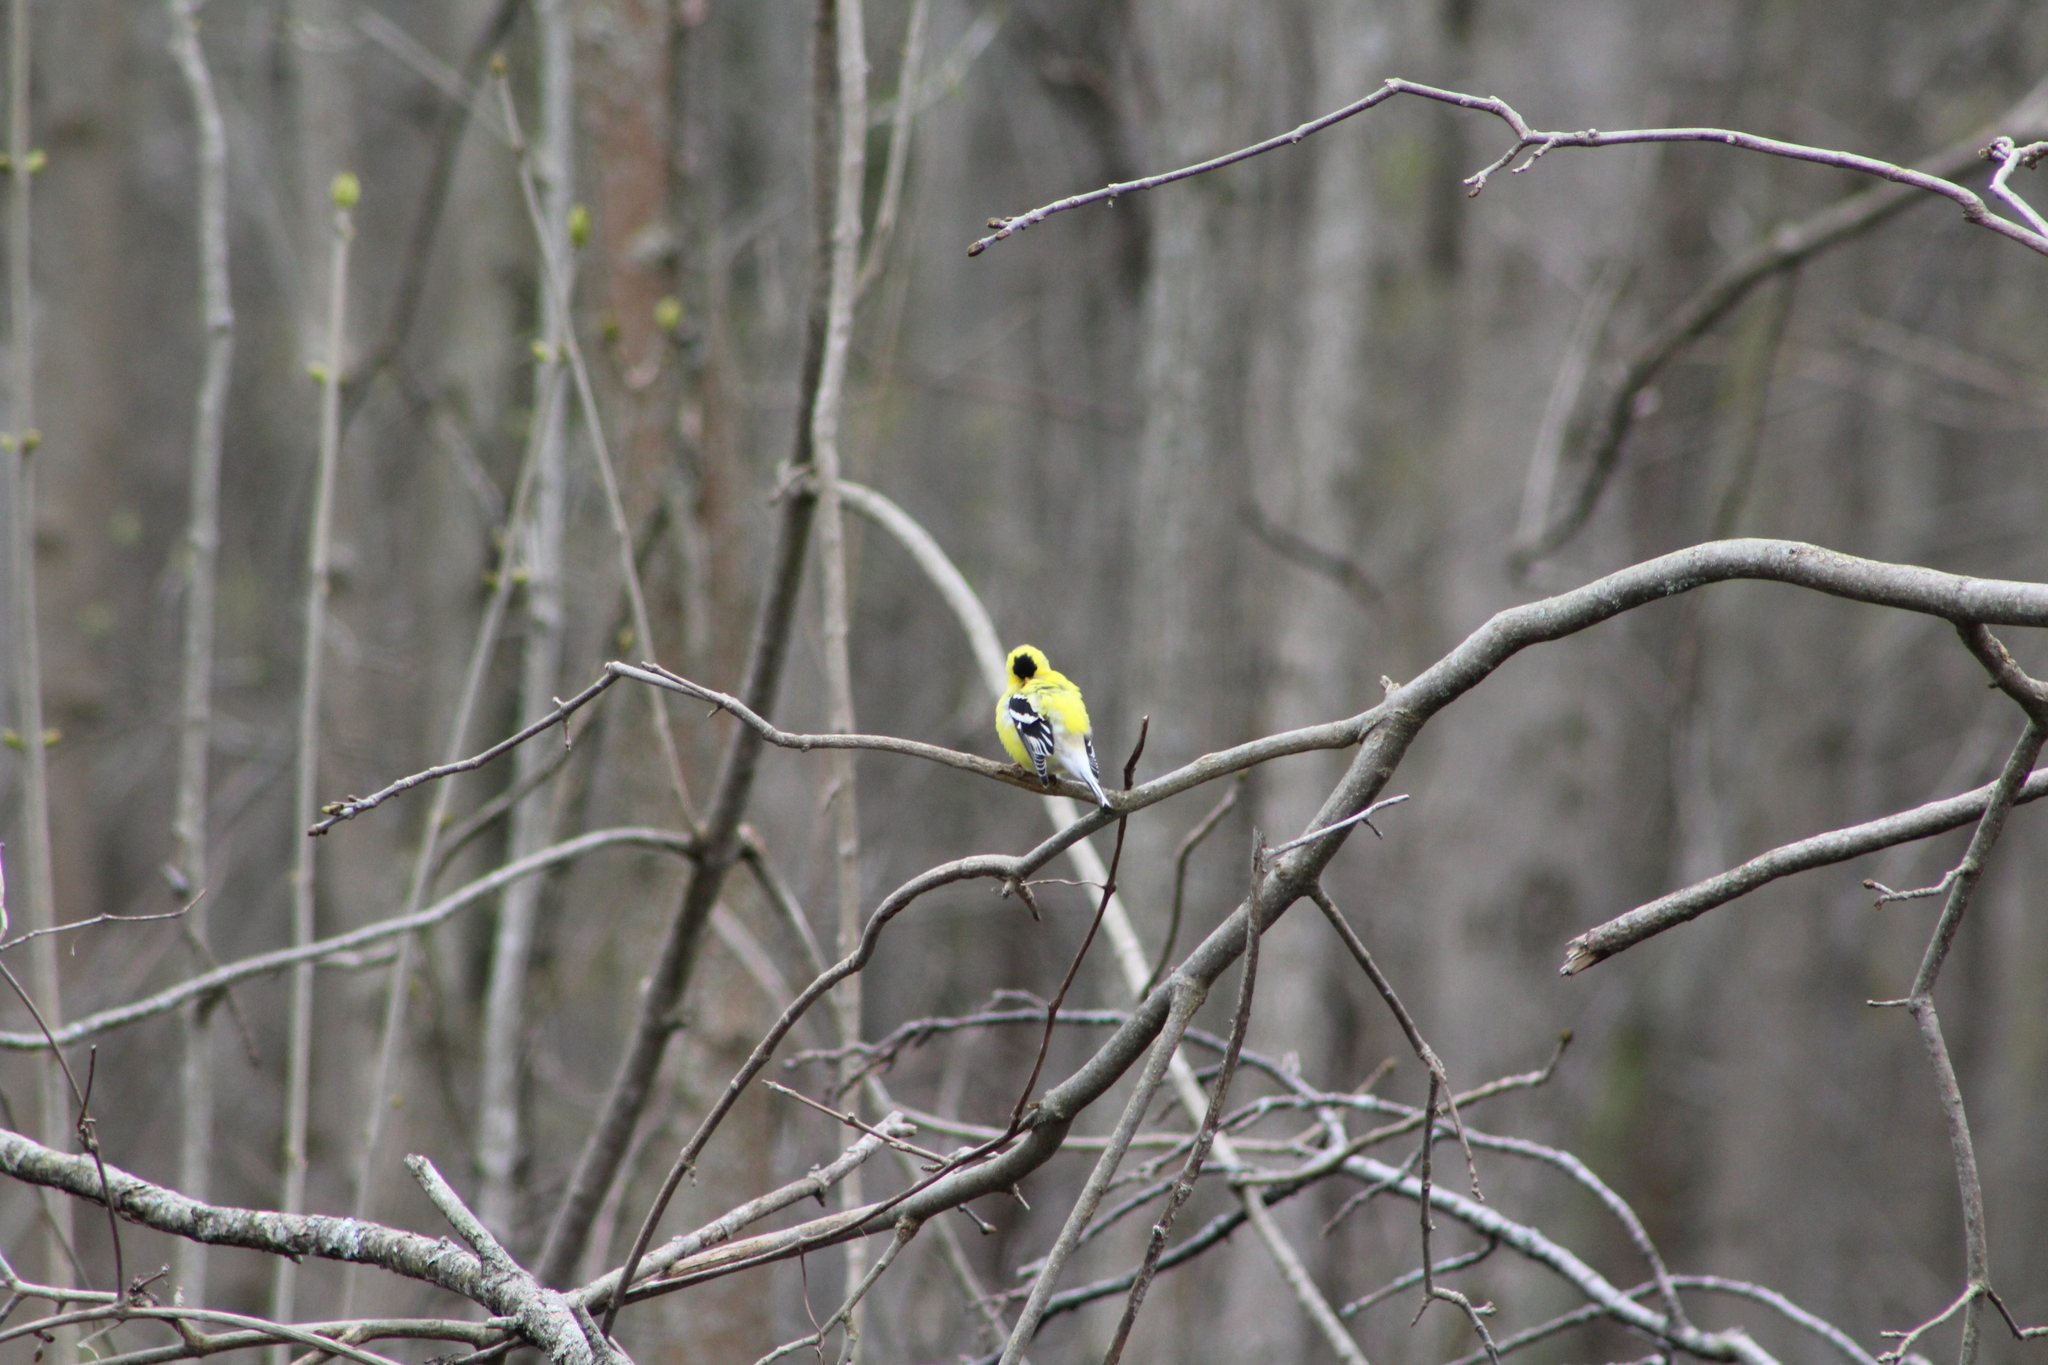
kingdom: Animalia
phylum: Chordata
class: Aves
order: Passeriformes
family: Fringillidae
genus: Spinus
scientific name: Spinus tristis
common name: American goldfinch
